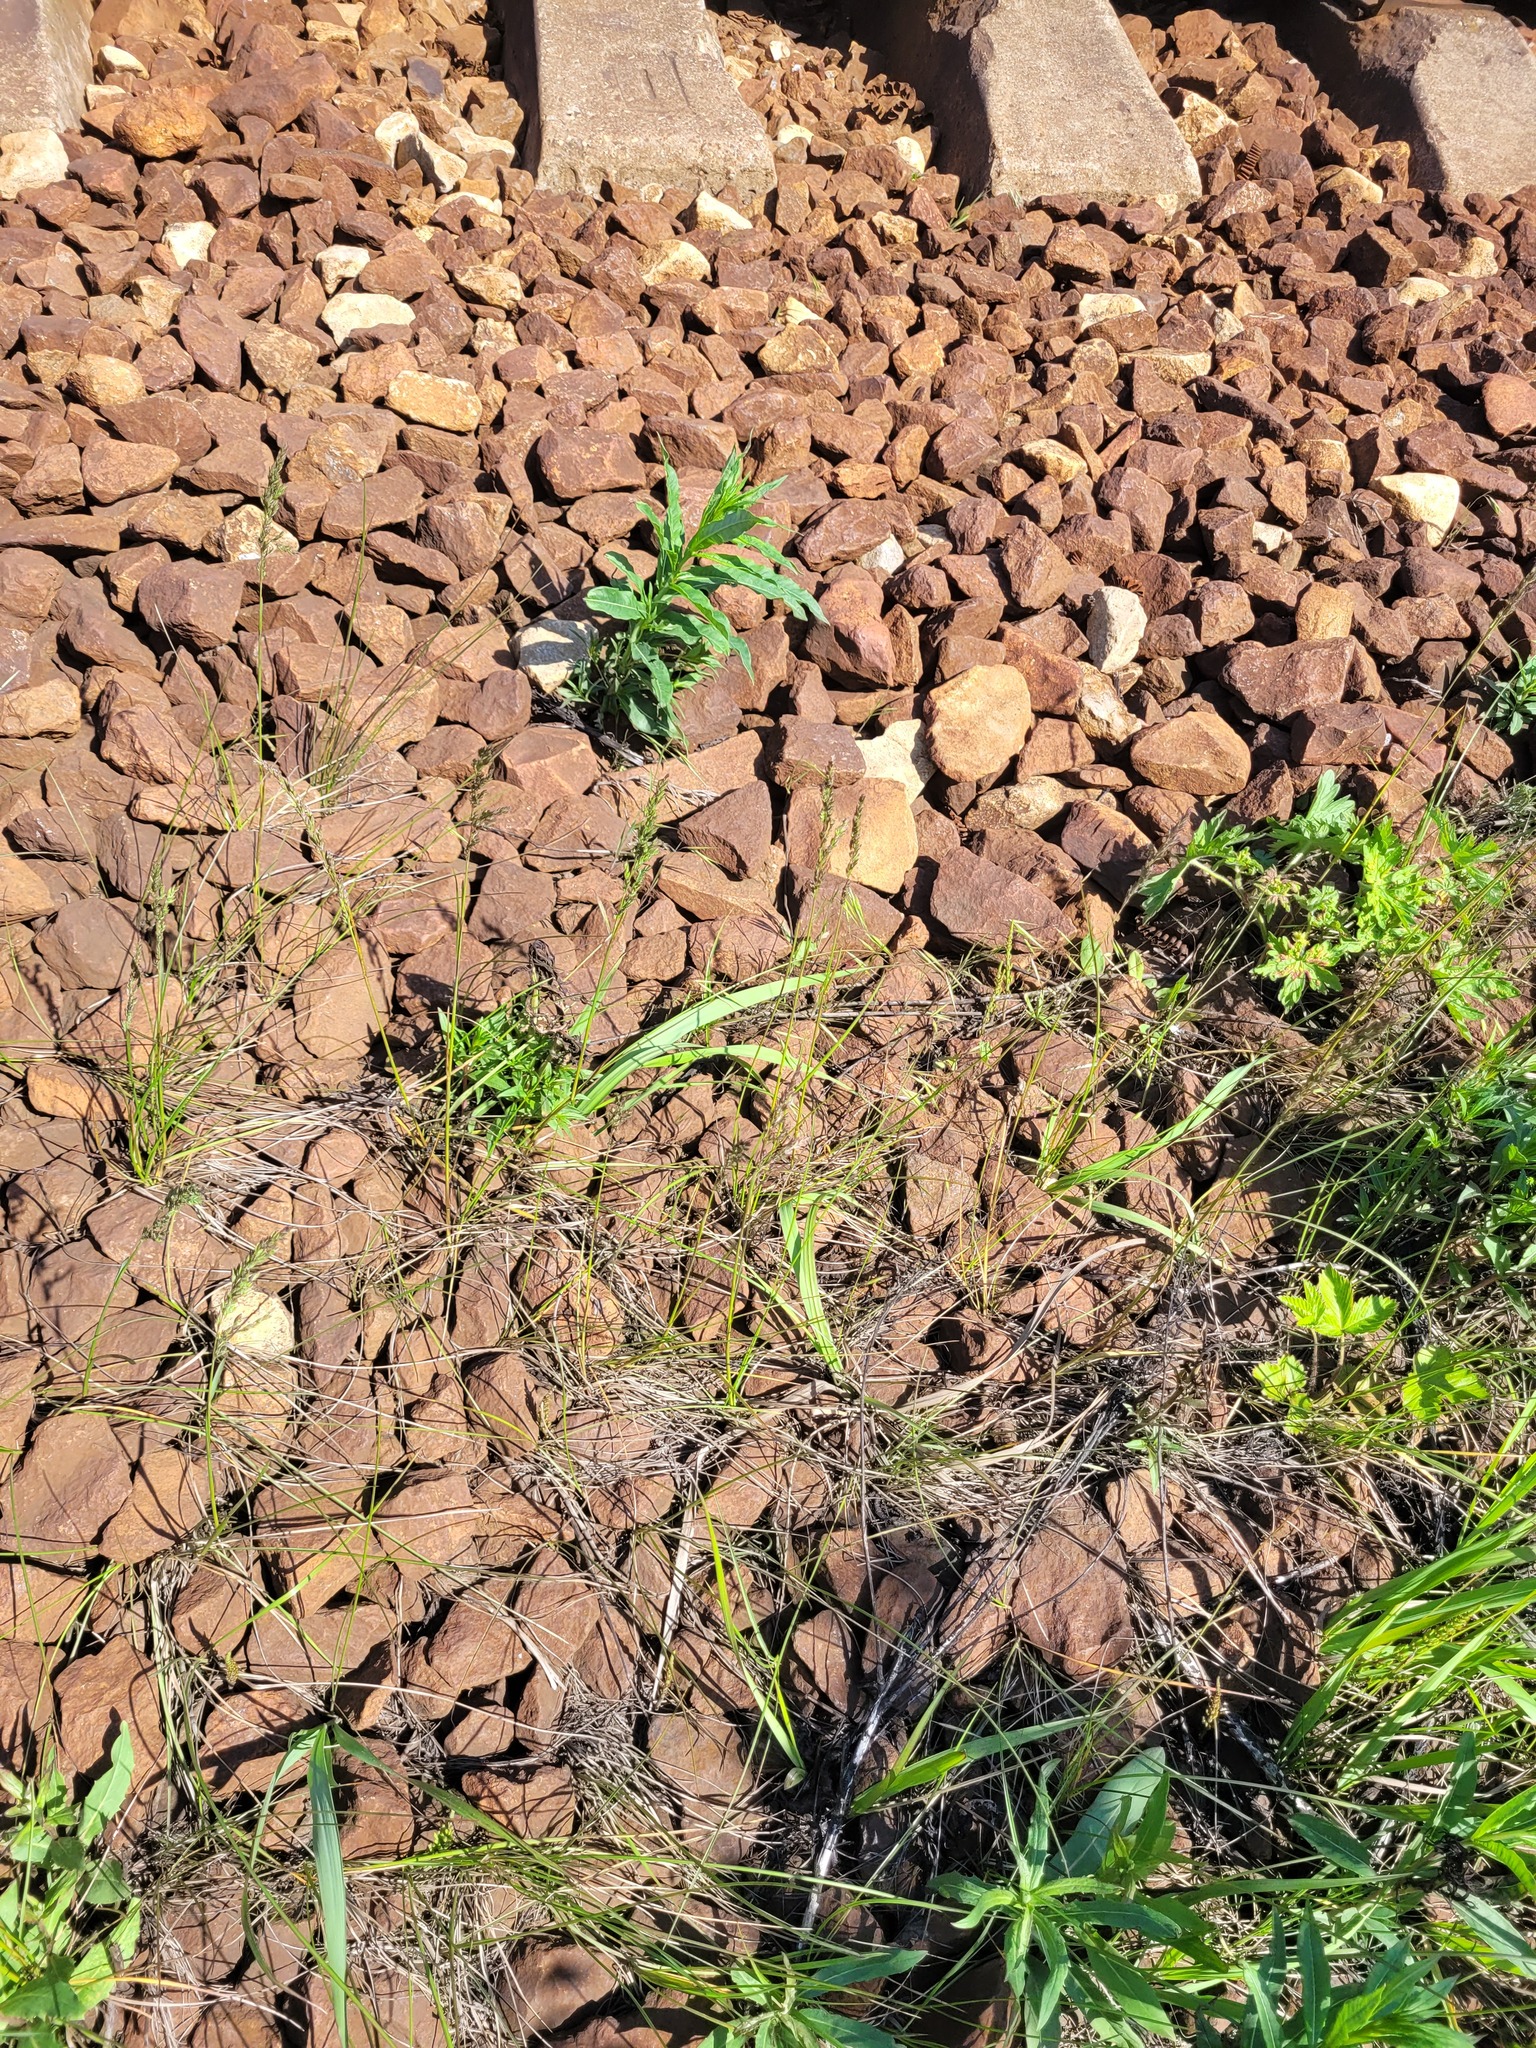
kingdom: Plantae
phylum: Tracheophyta
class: Liliopsida
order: Poales
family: Poaceae
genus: Poa
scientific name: Poa angustifolia
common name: Narrow-leaved meadow-grass
